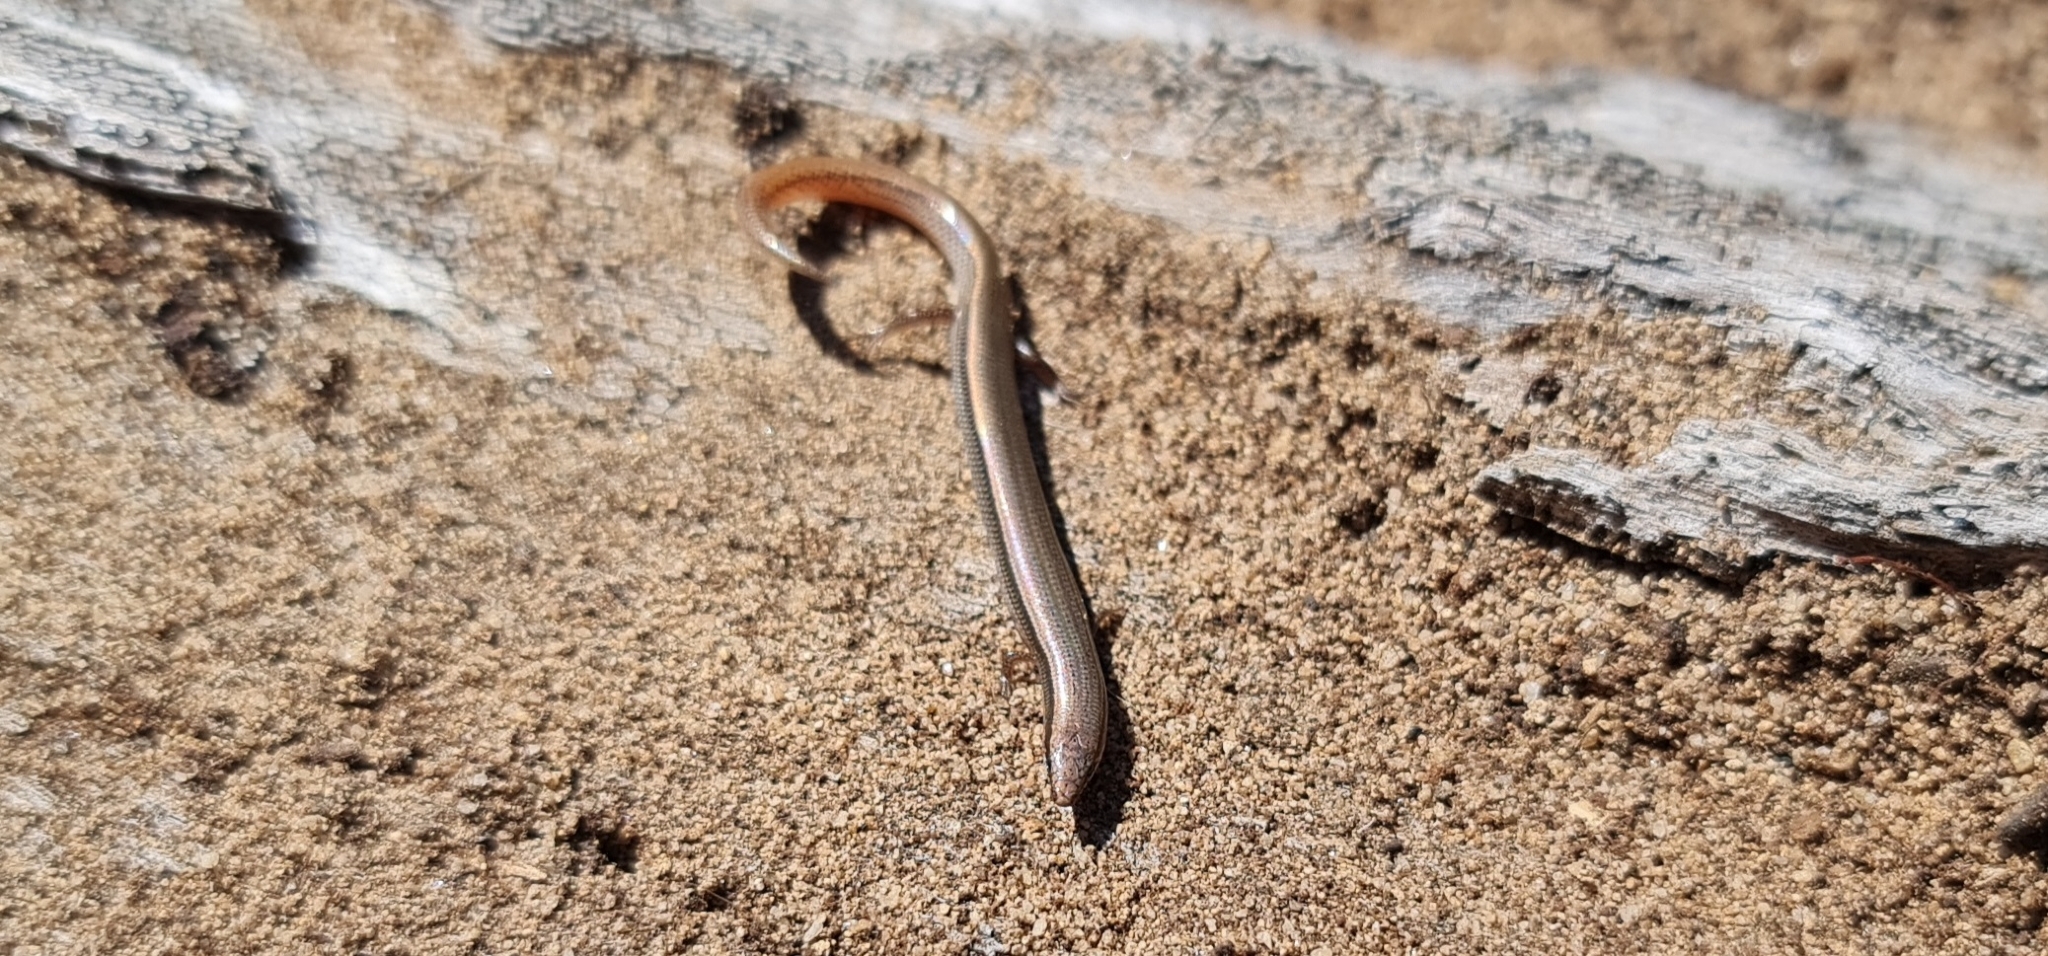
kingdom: Animalia
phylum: Chordata
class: Squamata
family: Scincidae
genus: Lerista
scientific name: Lerista timida
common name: Dwarf three-toed slider
